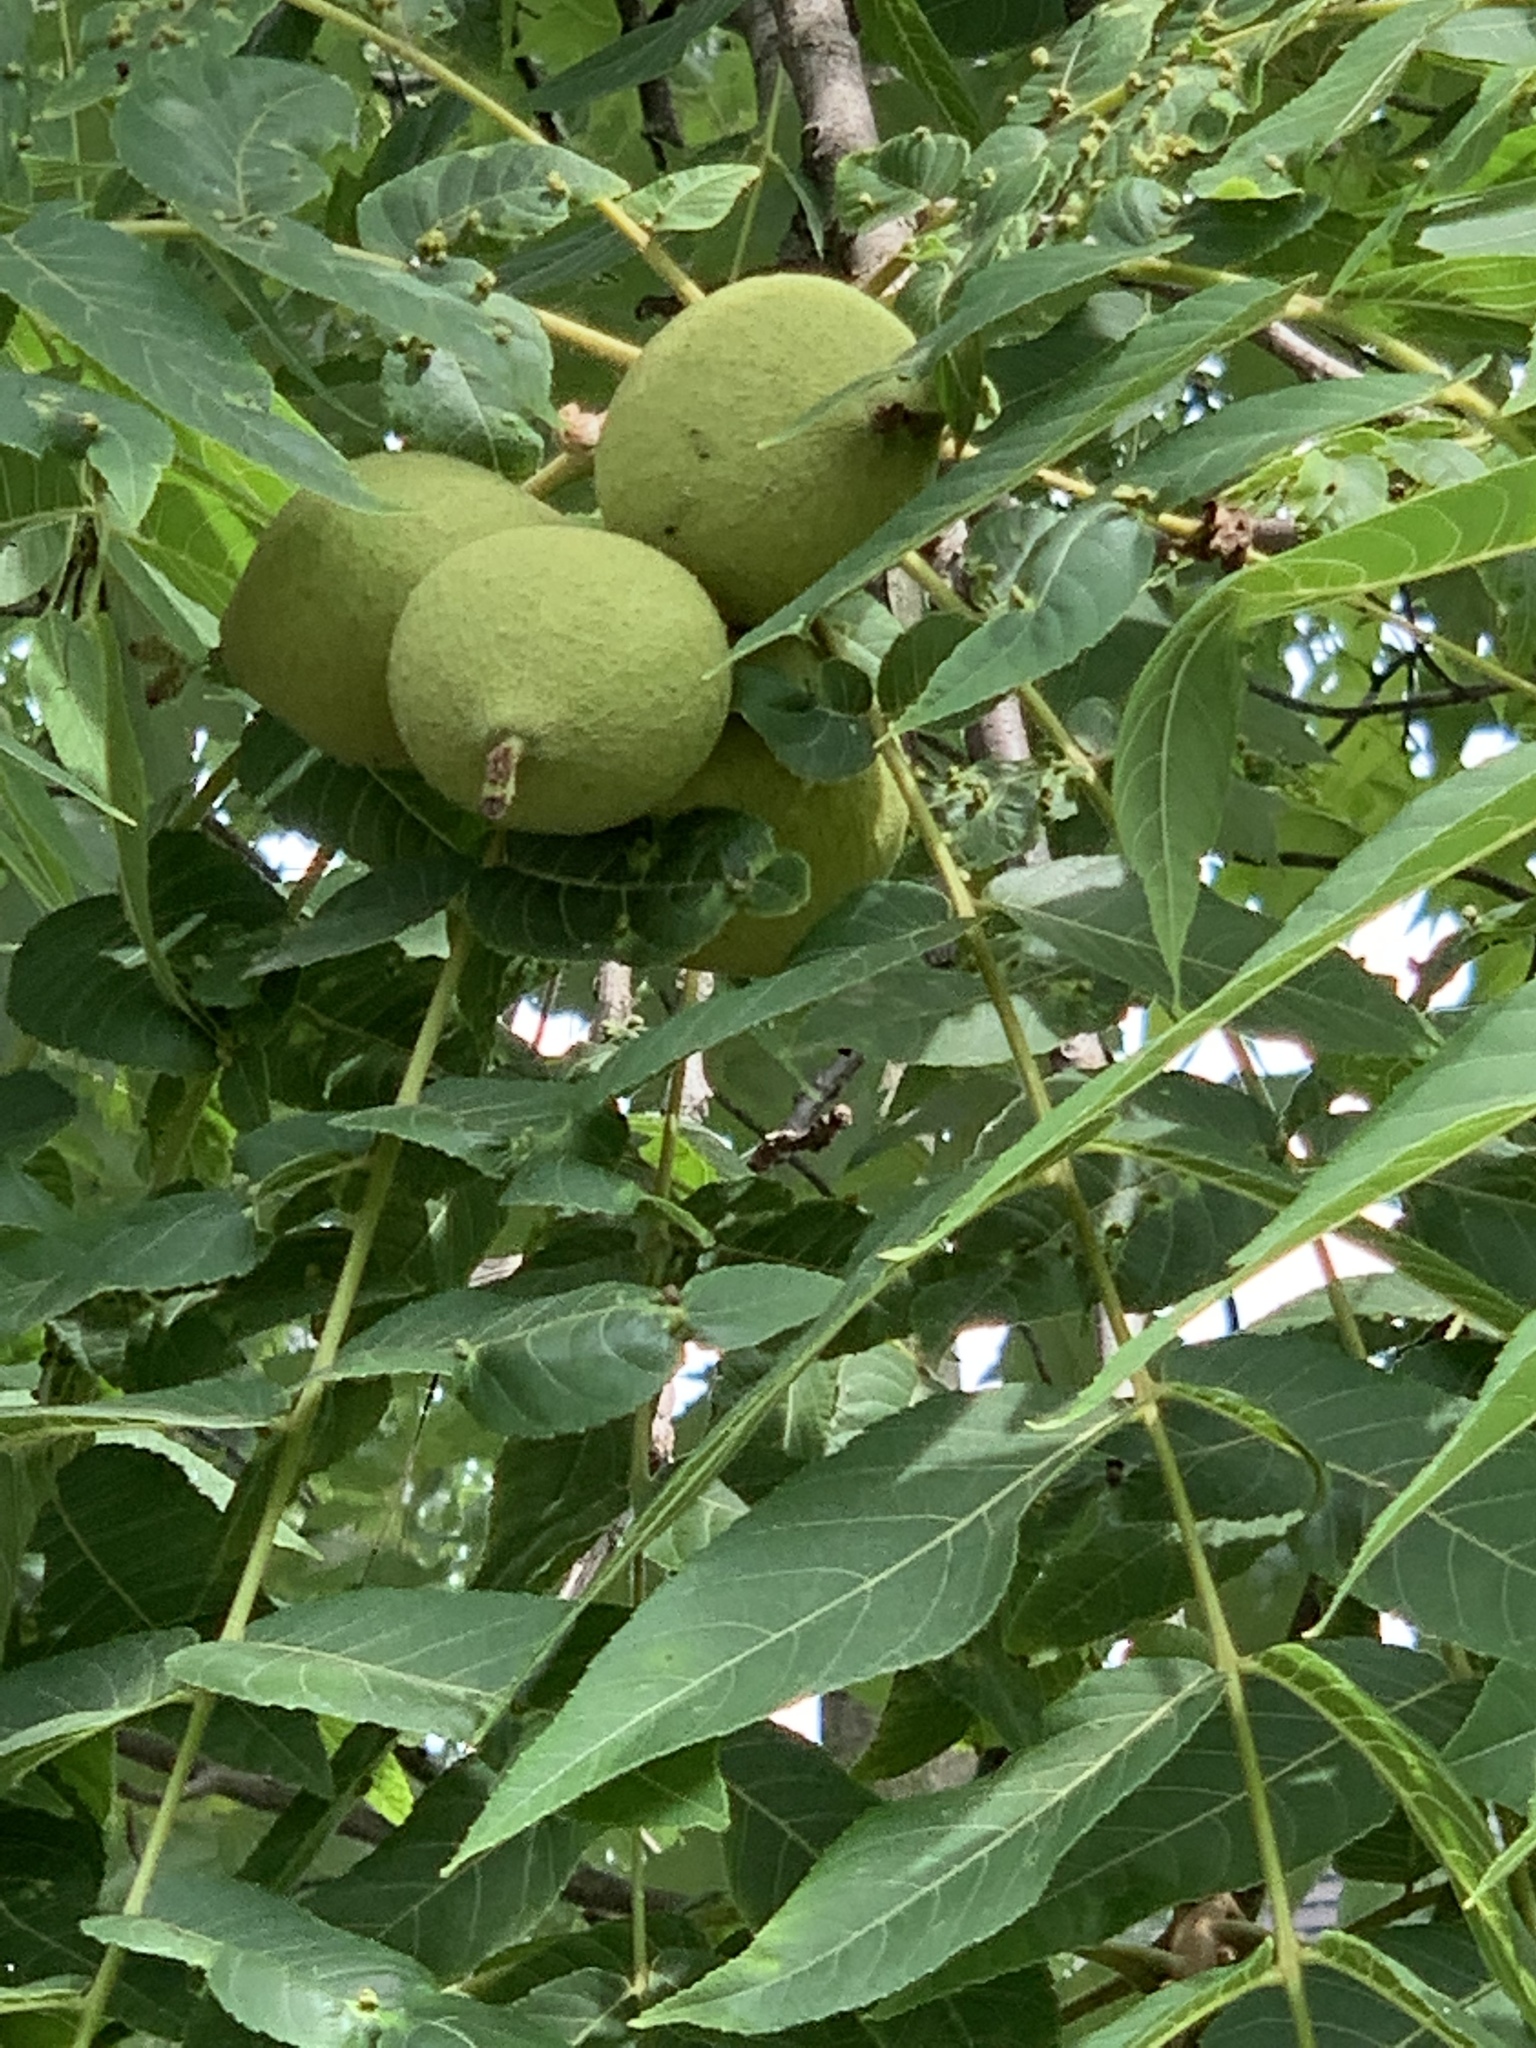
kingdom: Plantae
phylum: Tracheophyta
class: Magnoliopsida
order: Fagales
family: Juglandaceae
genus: Juglans
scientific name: Juglans nigra
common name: Black walnut
